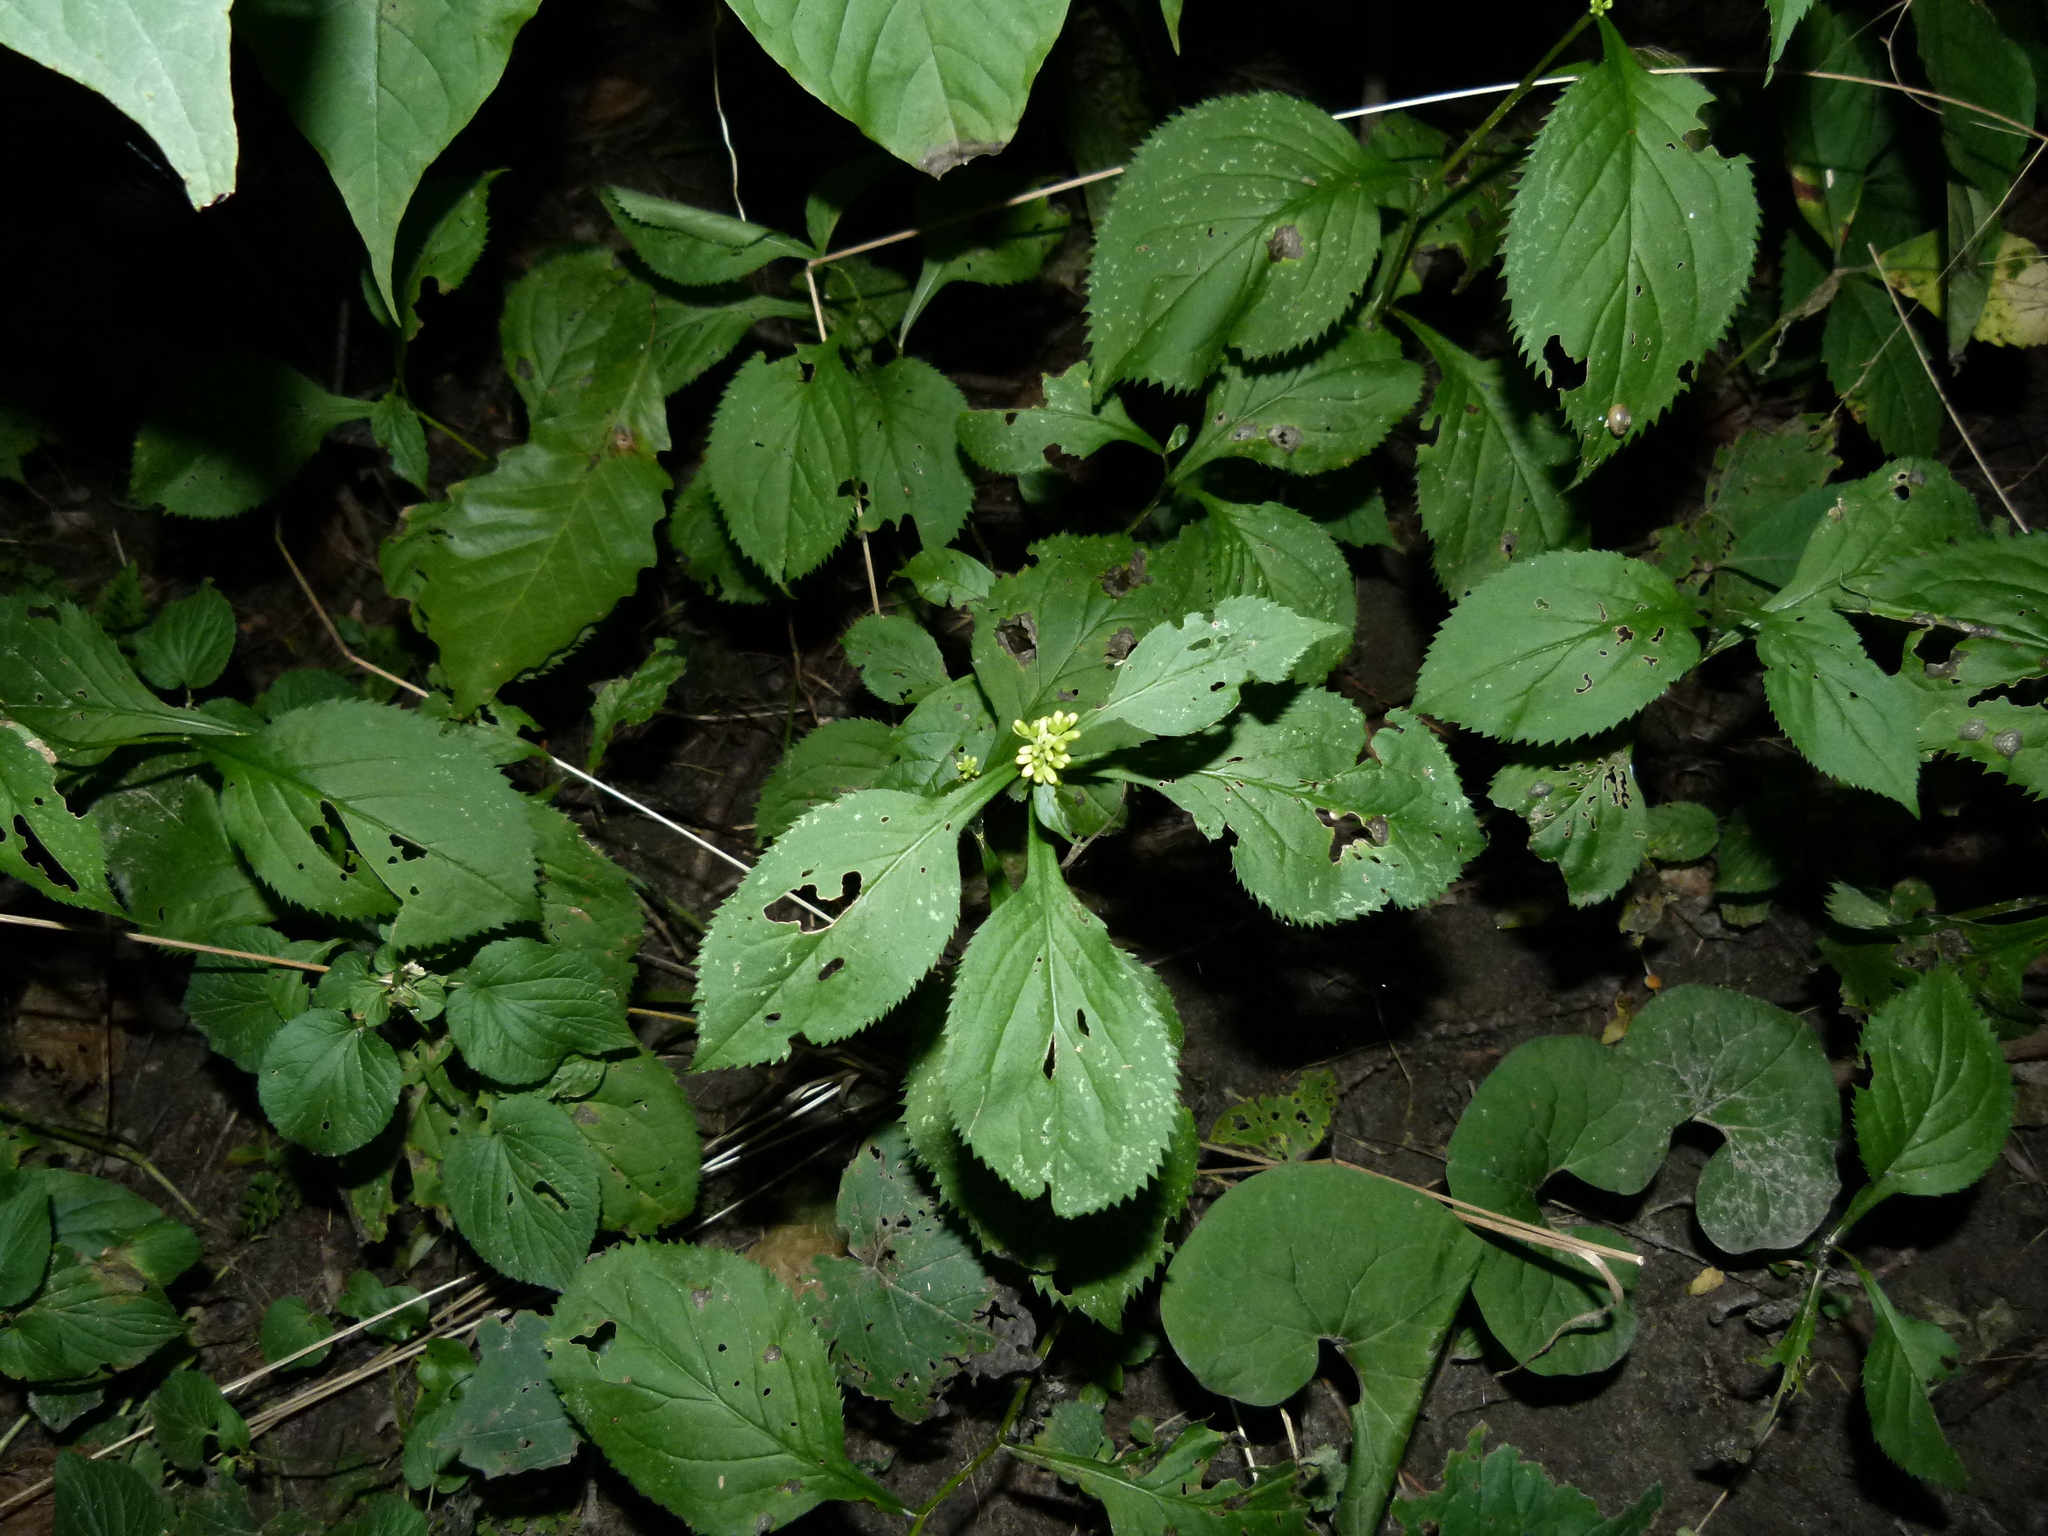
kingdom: Plantae
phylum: Tracheophyta
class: Magnoliopsida
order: Asterales
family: Asteraceae
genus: Solidago
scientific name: Solidago flexicaulis
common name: Zig-zag goldenrod
